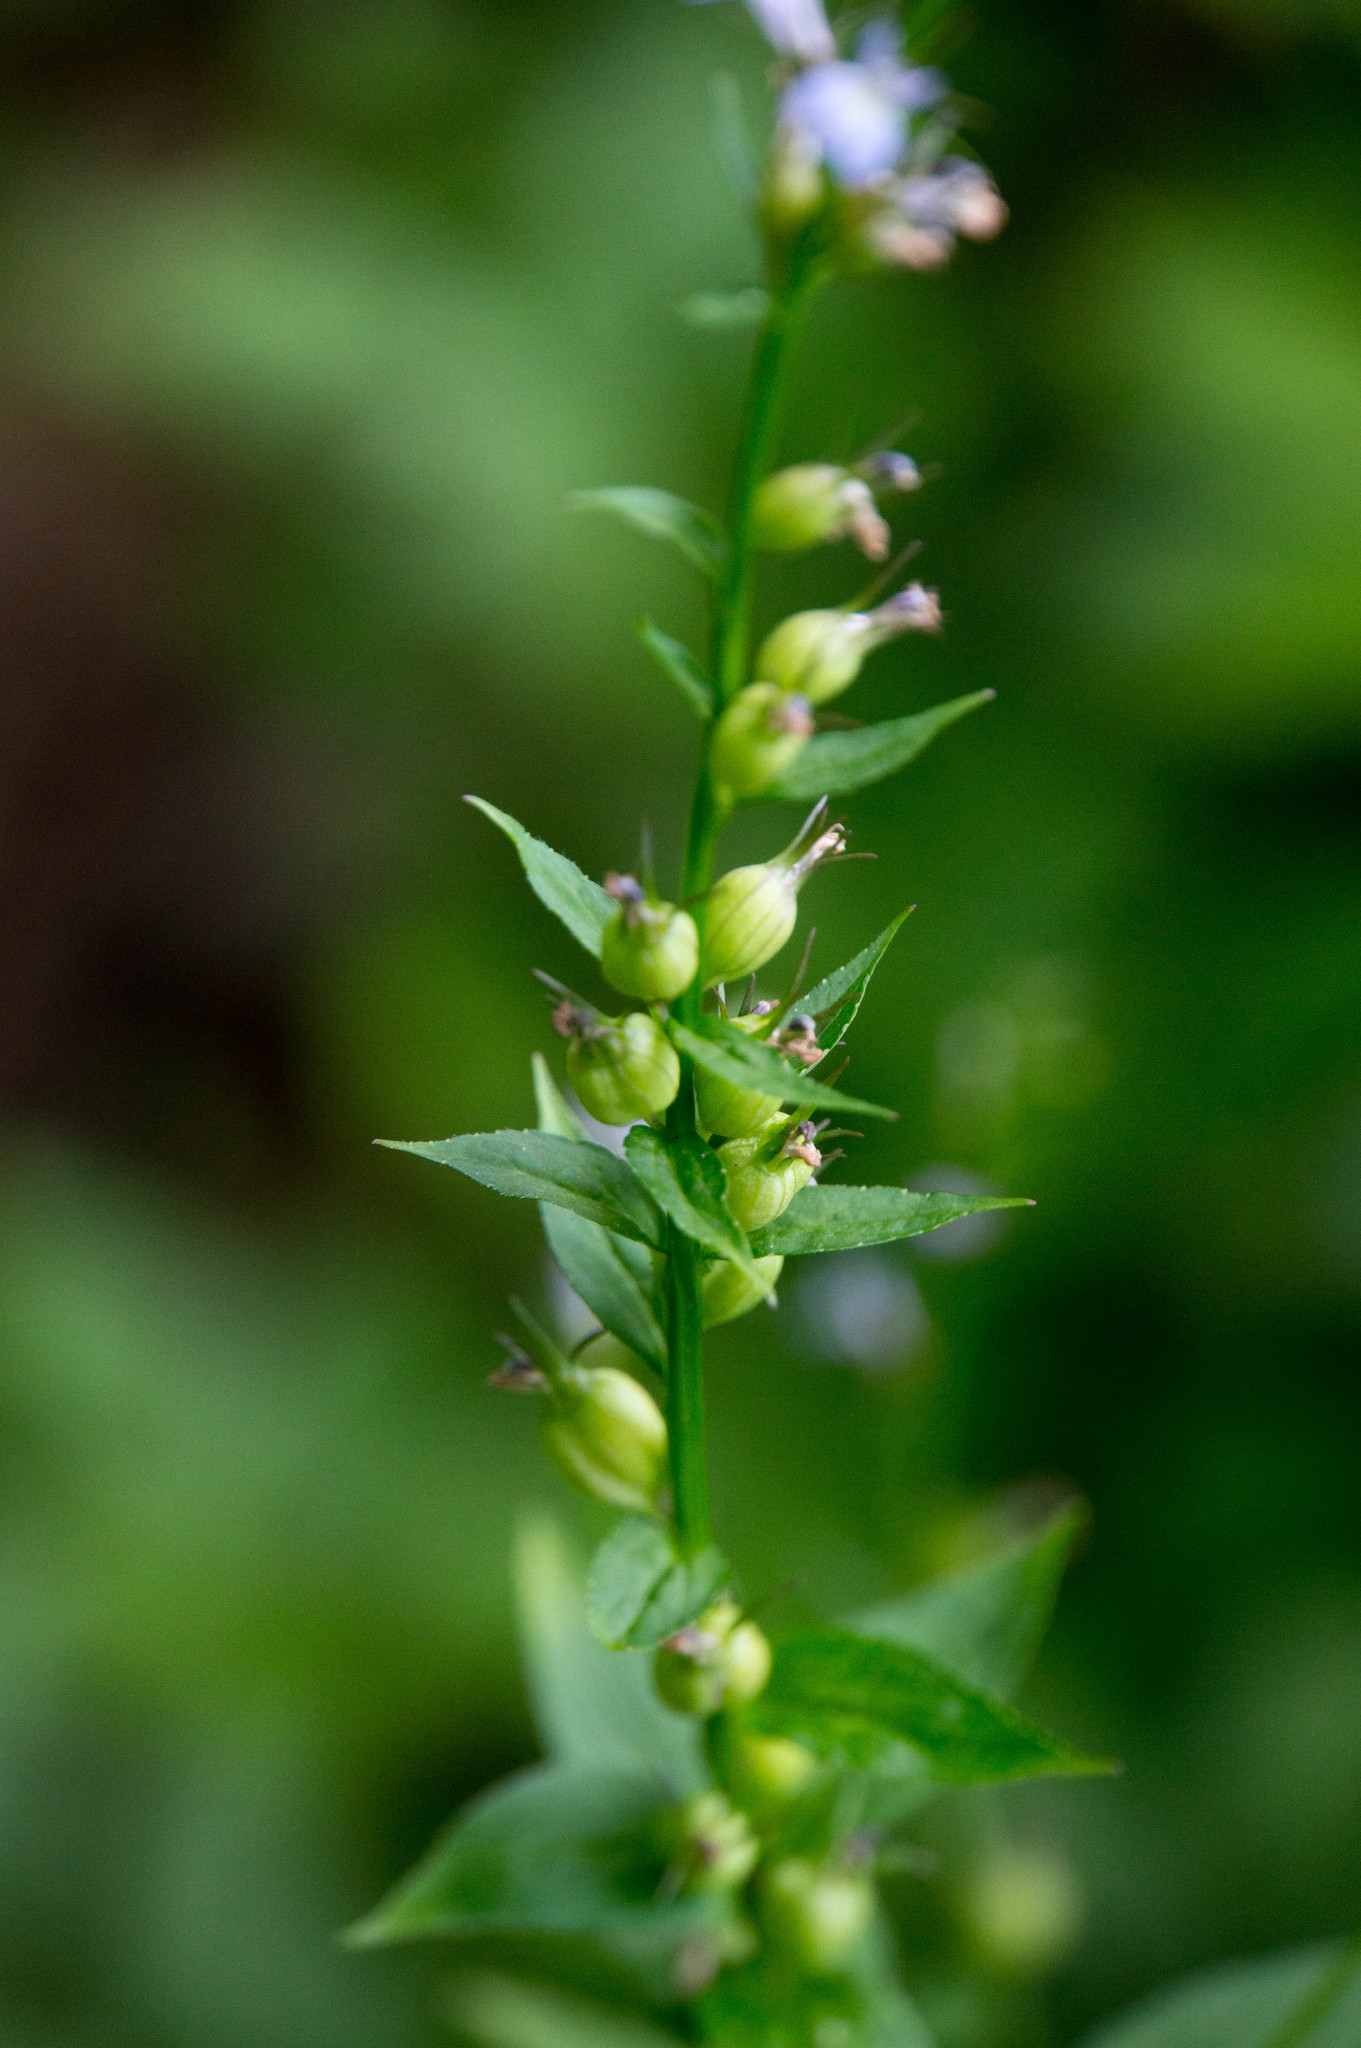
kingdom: Plantae
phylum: Tracheophyta
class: Magnoliopsida
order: Asterales
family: Campanulaceae
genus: Lobelia
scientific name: Lobelia inflata
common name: Indian tobacco
